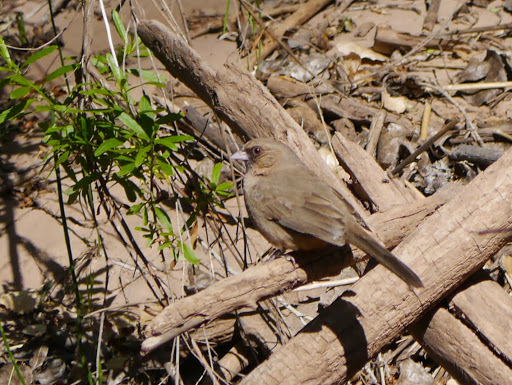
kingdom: Animalia
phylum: Chordata
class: Aves
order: Passeriformes
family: Passerellidae
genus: Melozone
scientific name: Melozone aberti
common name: Abert's towhee
